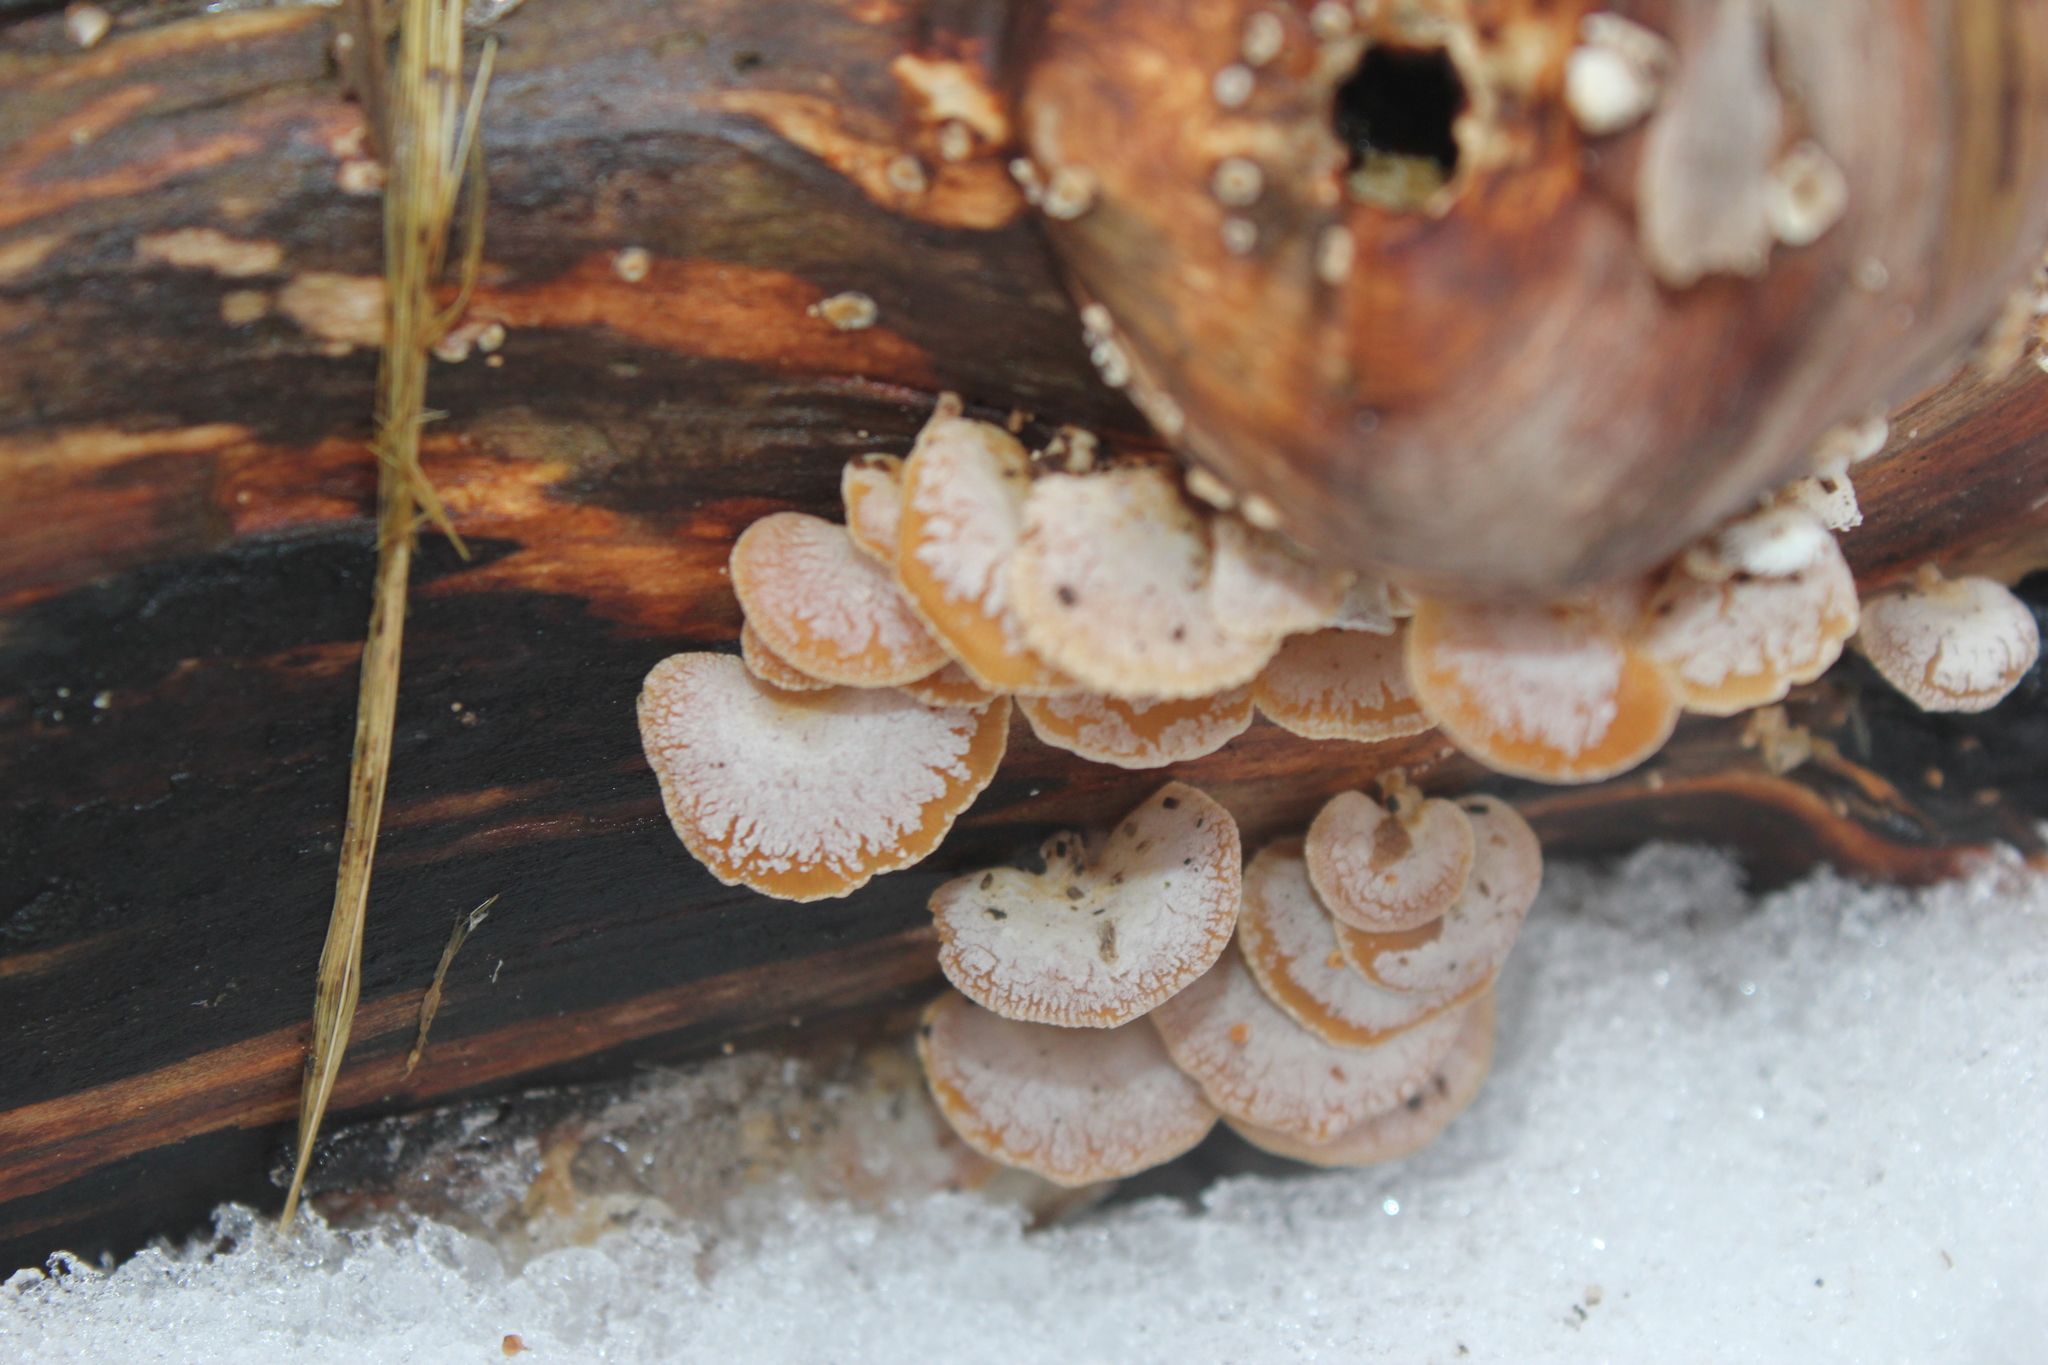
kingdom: Fungi
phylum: Basidiomycota
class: Agaricomycetes
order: Agaricales
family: Mycenaceae
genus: Panellus
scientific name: Panellus stipticus
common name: Bitter oysterling
